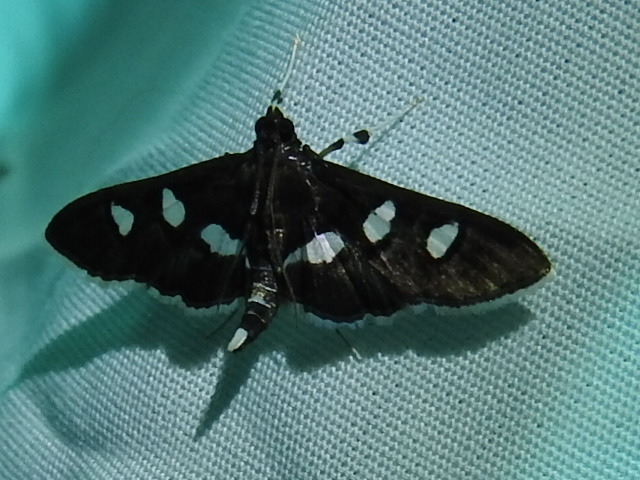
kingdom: Animalia
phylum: Arthropoda
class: Insecta
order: Lepidoptera
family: Crambidae
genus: Desmia
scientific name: Desmia funeralis
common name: Grape leaf folder moth
